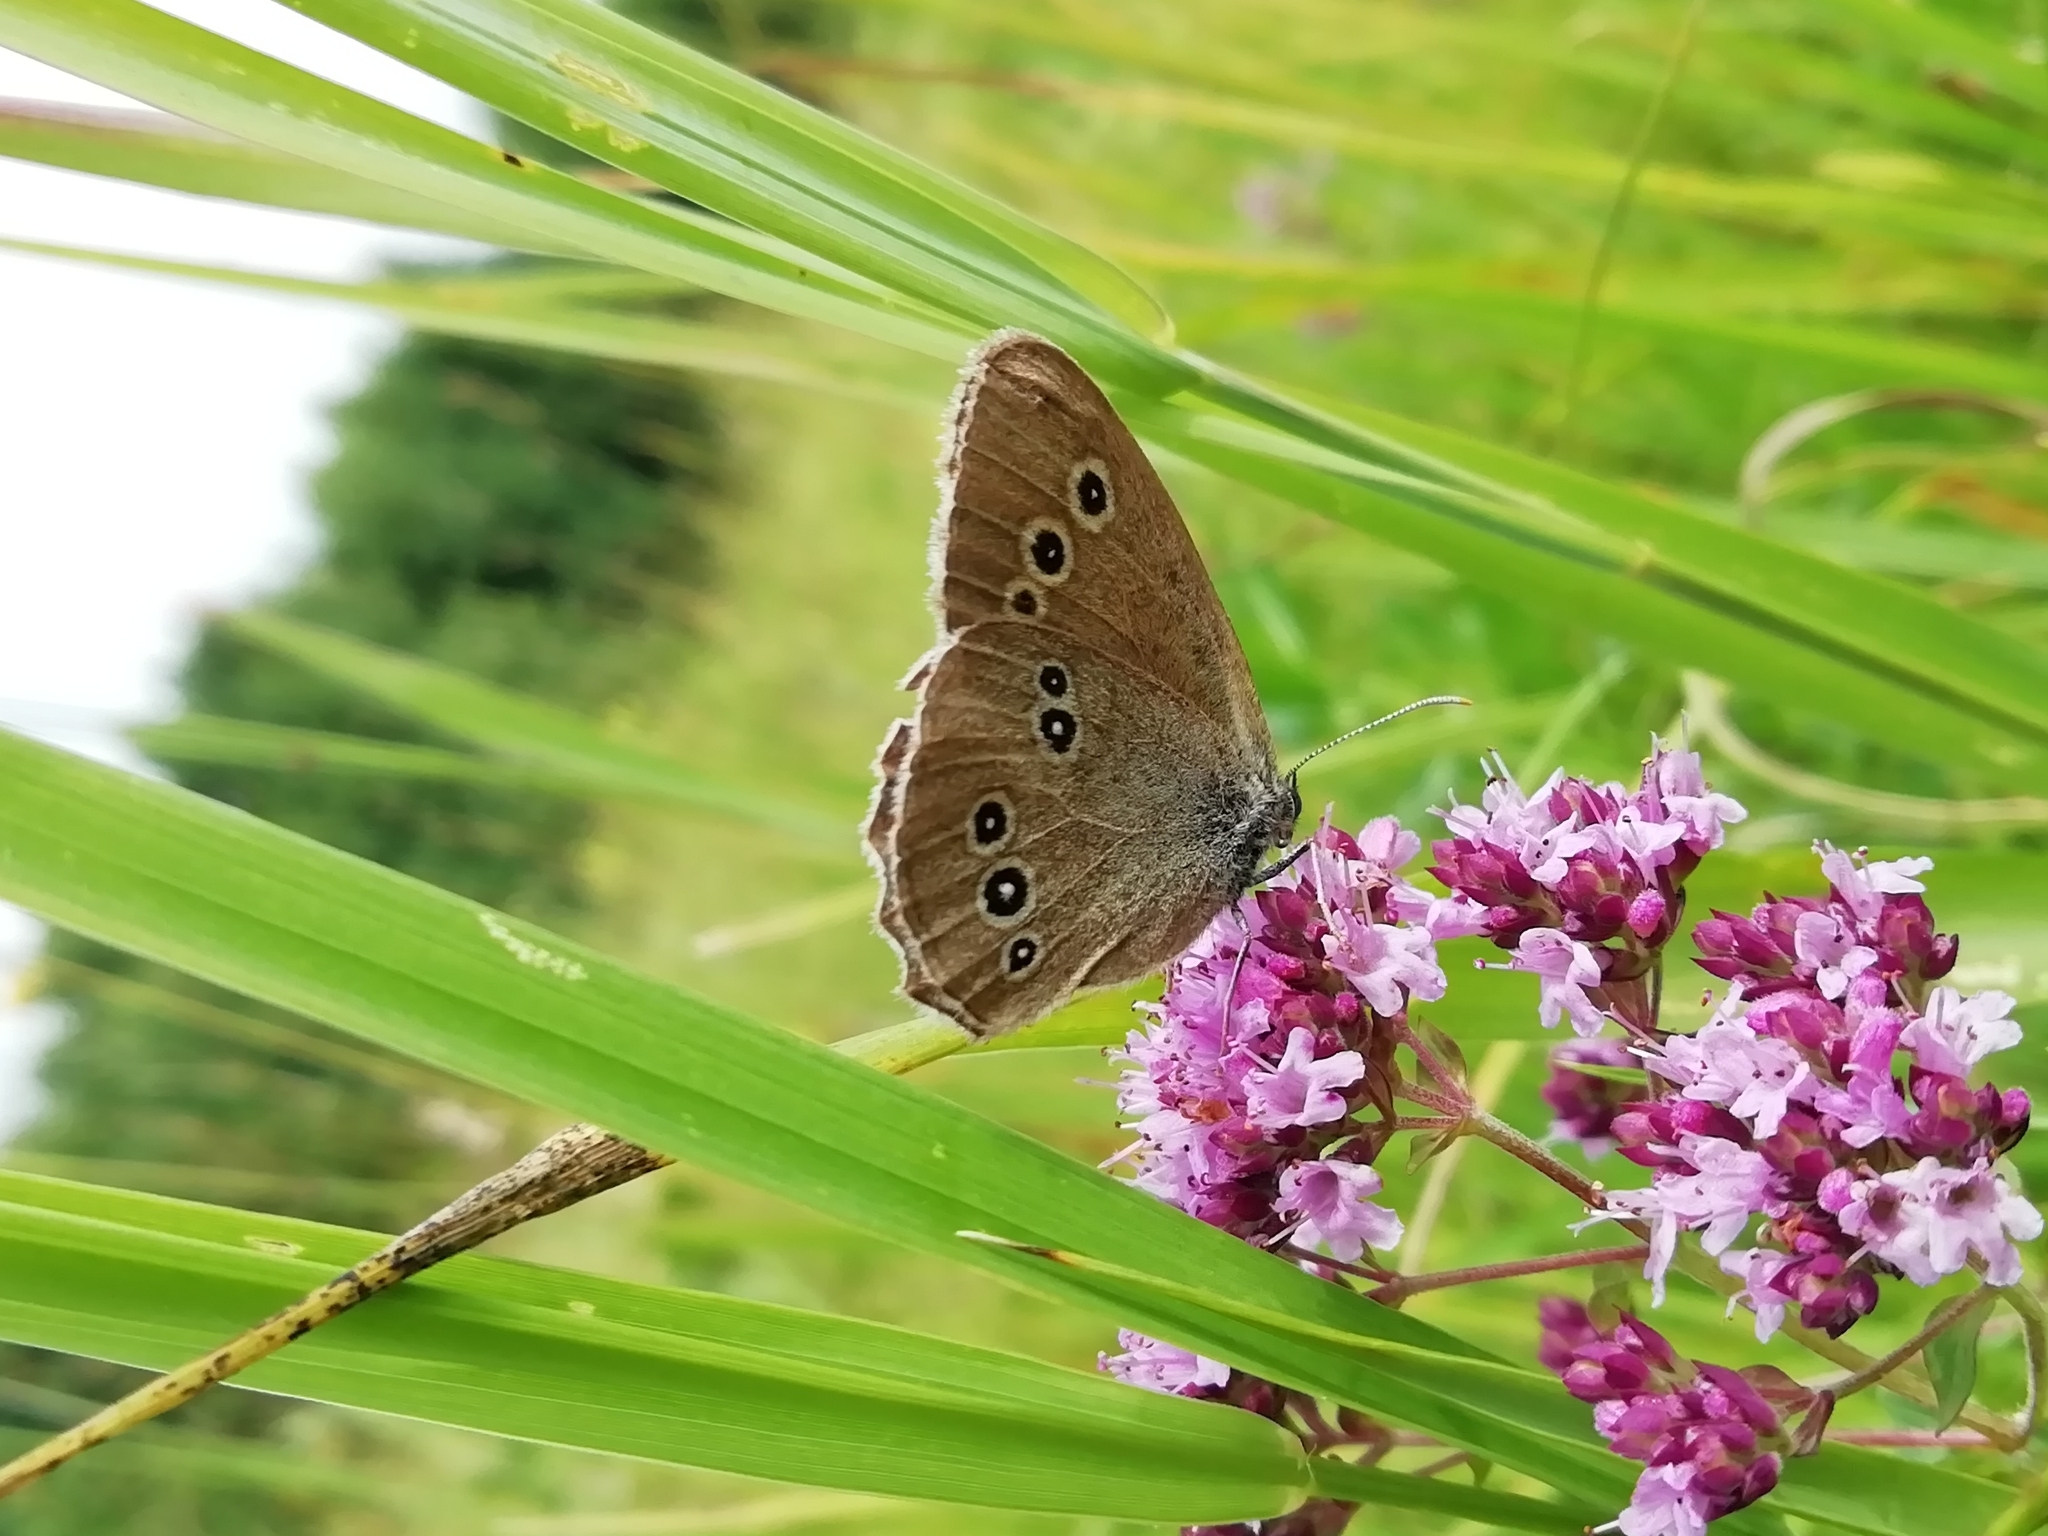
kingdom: Animalia
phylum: Arthropoda
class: Insecta
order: Lepidoptera
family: Nymphalidae
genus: Aphantopus
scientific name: Aphantopus hyperantus
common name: Ringlet
